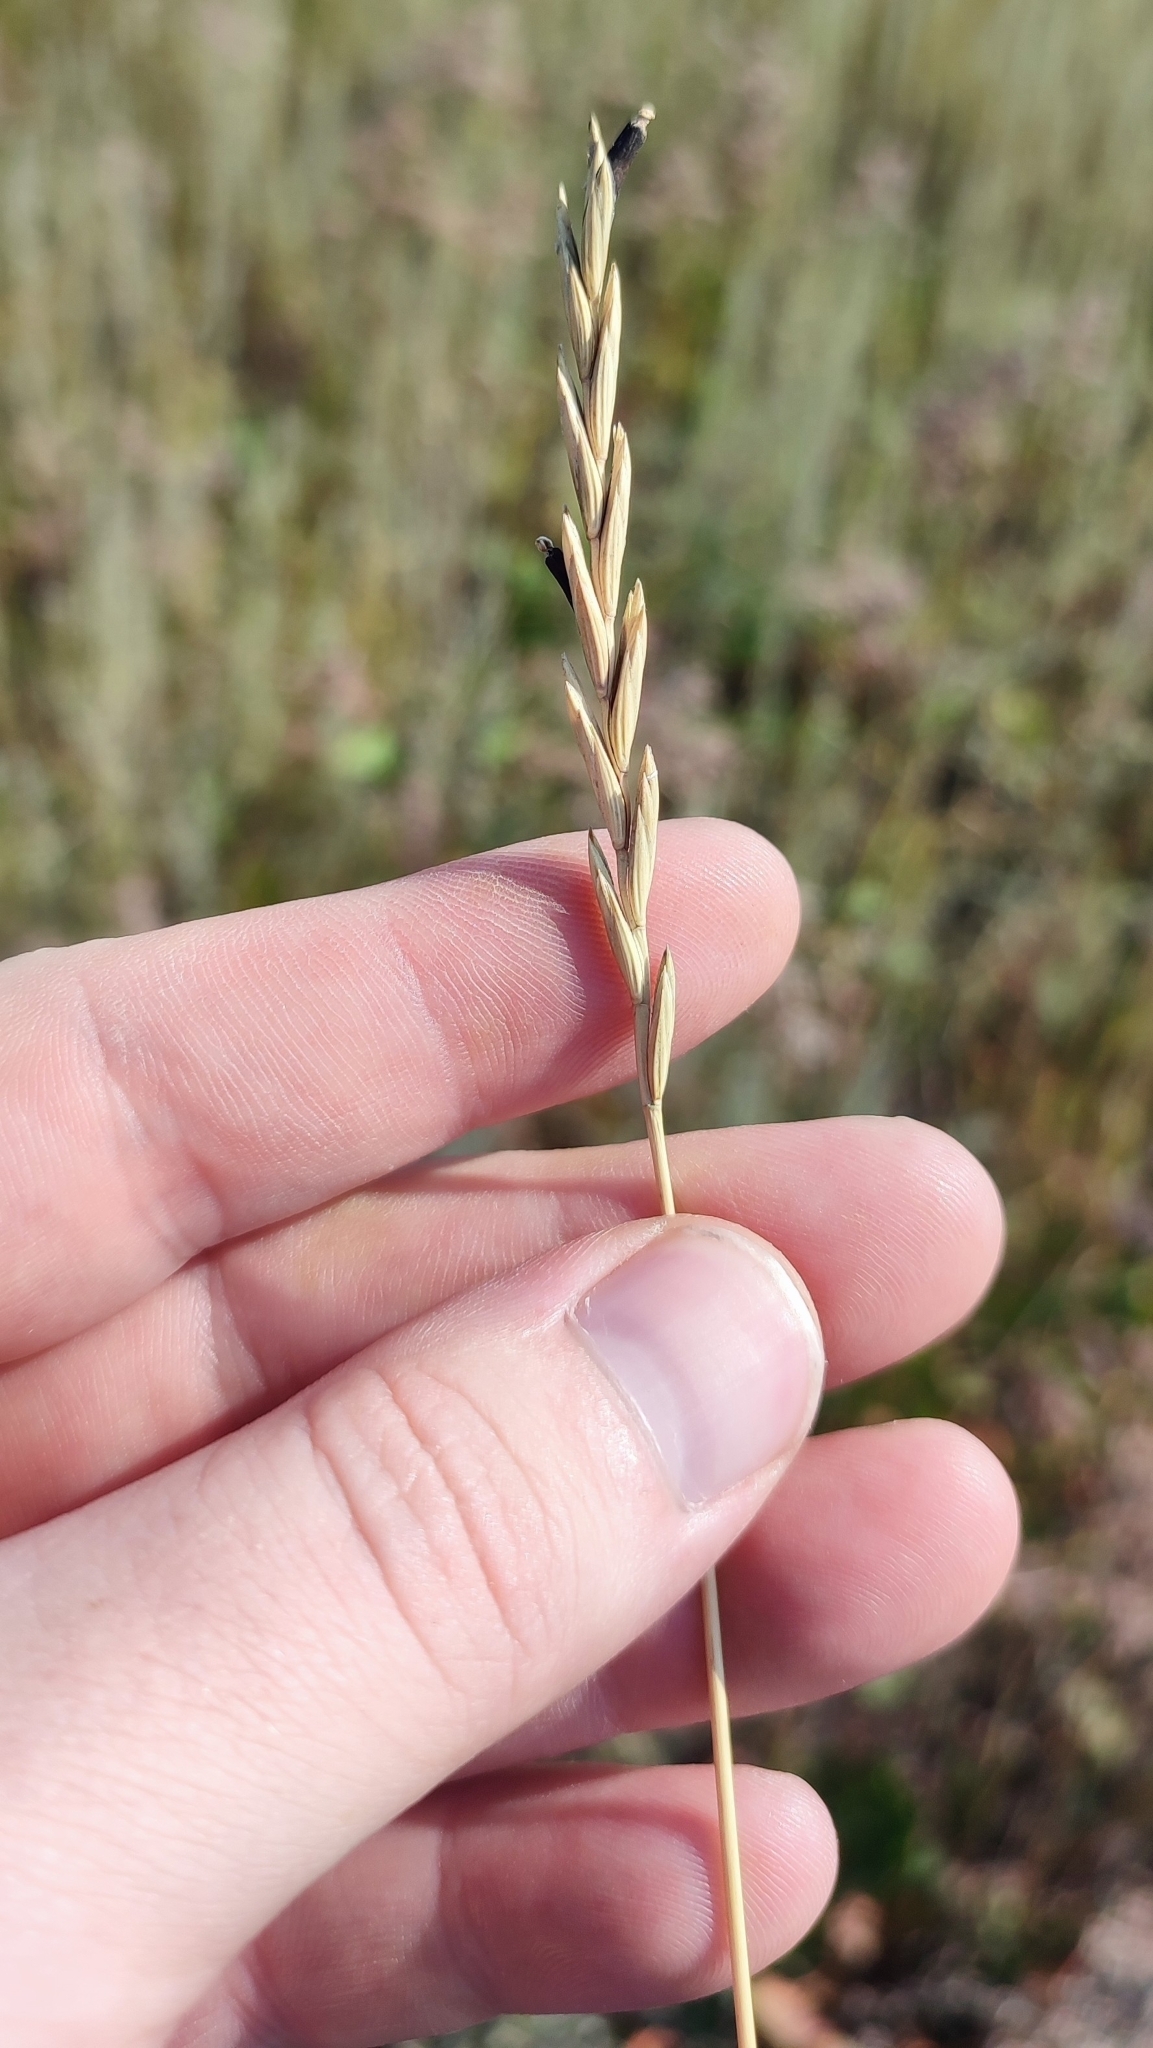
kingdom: Plantae
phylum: Tracheophyta
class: Liliopsida
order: Poales
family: Poaceae
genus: Elymus
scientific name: Elymus repens
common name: Quackgrass
